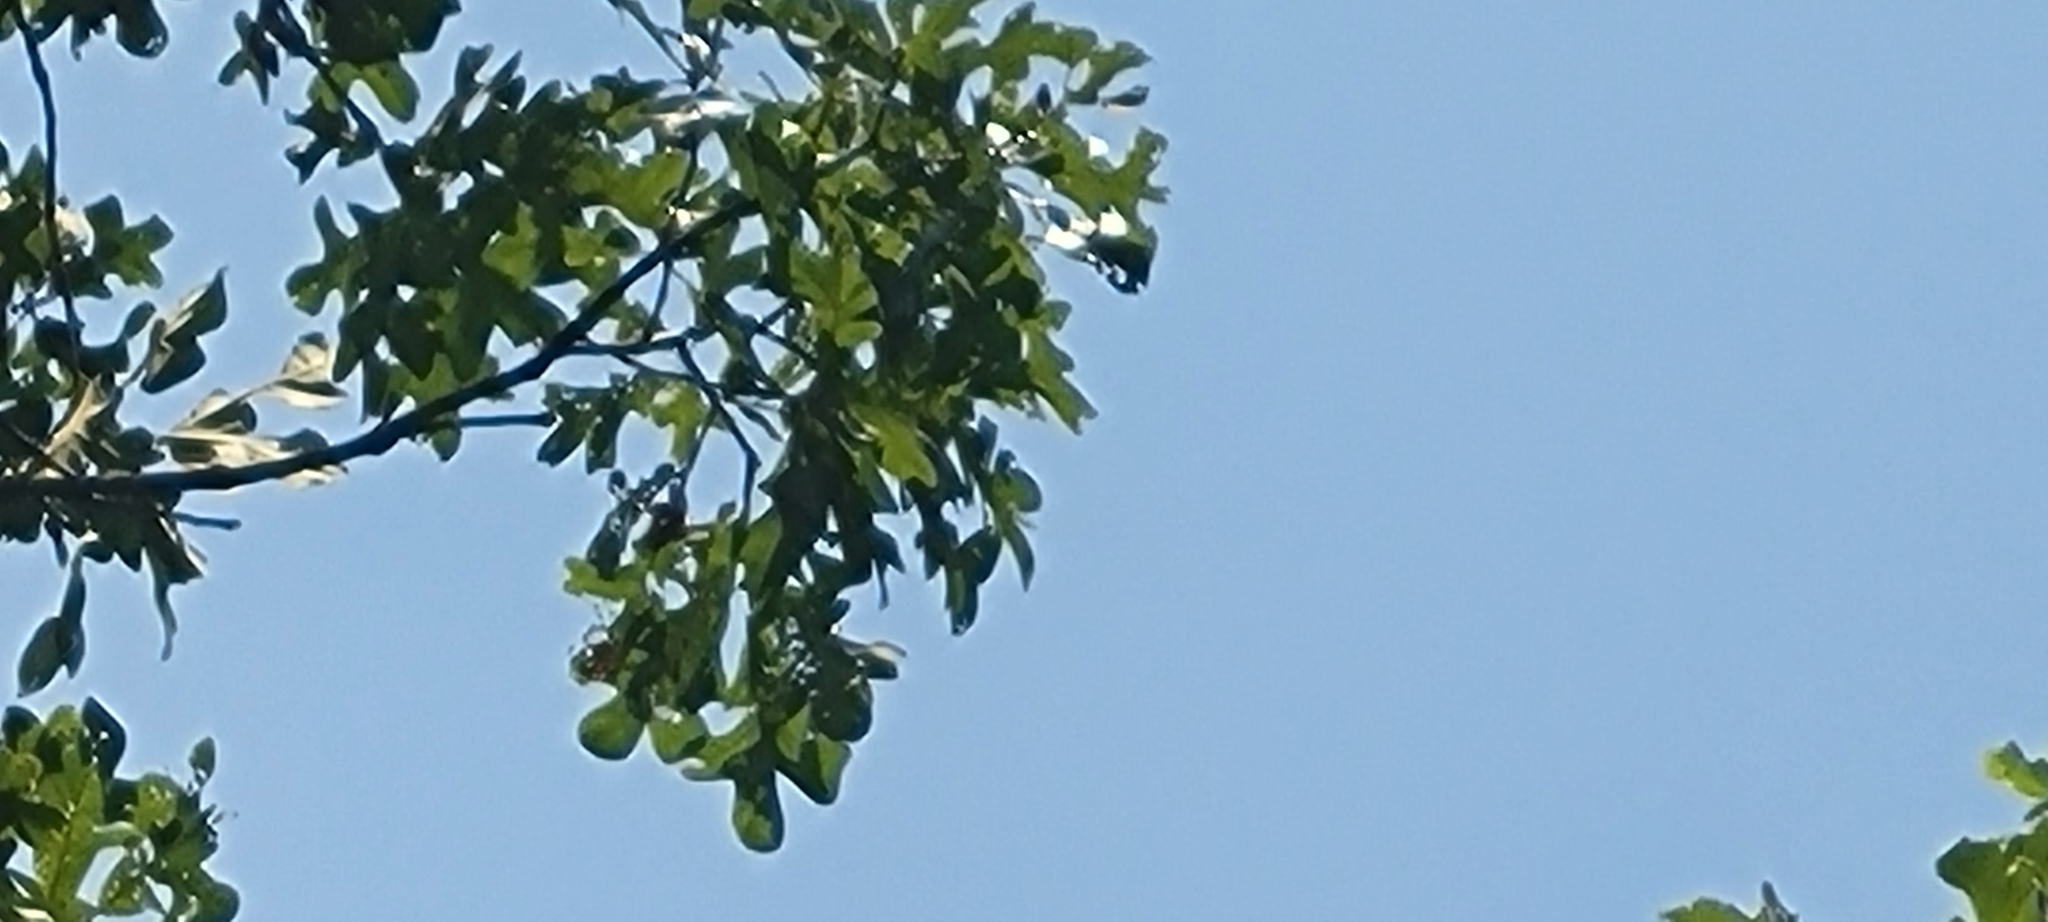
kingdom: Plantae
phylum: Tracheophyta
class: Magnoliopsida
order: Fagales
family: Fagaceae
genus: Quercus
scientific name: Quercus stellata
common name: Post oak
